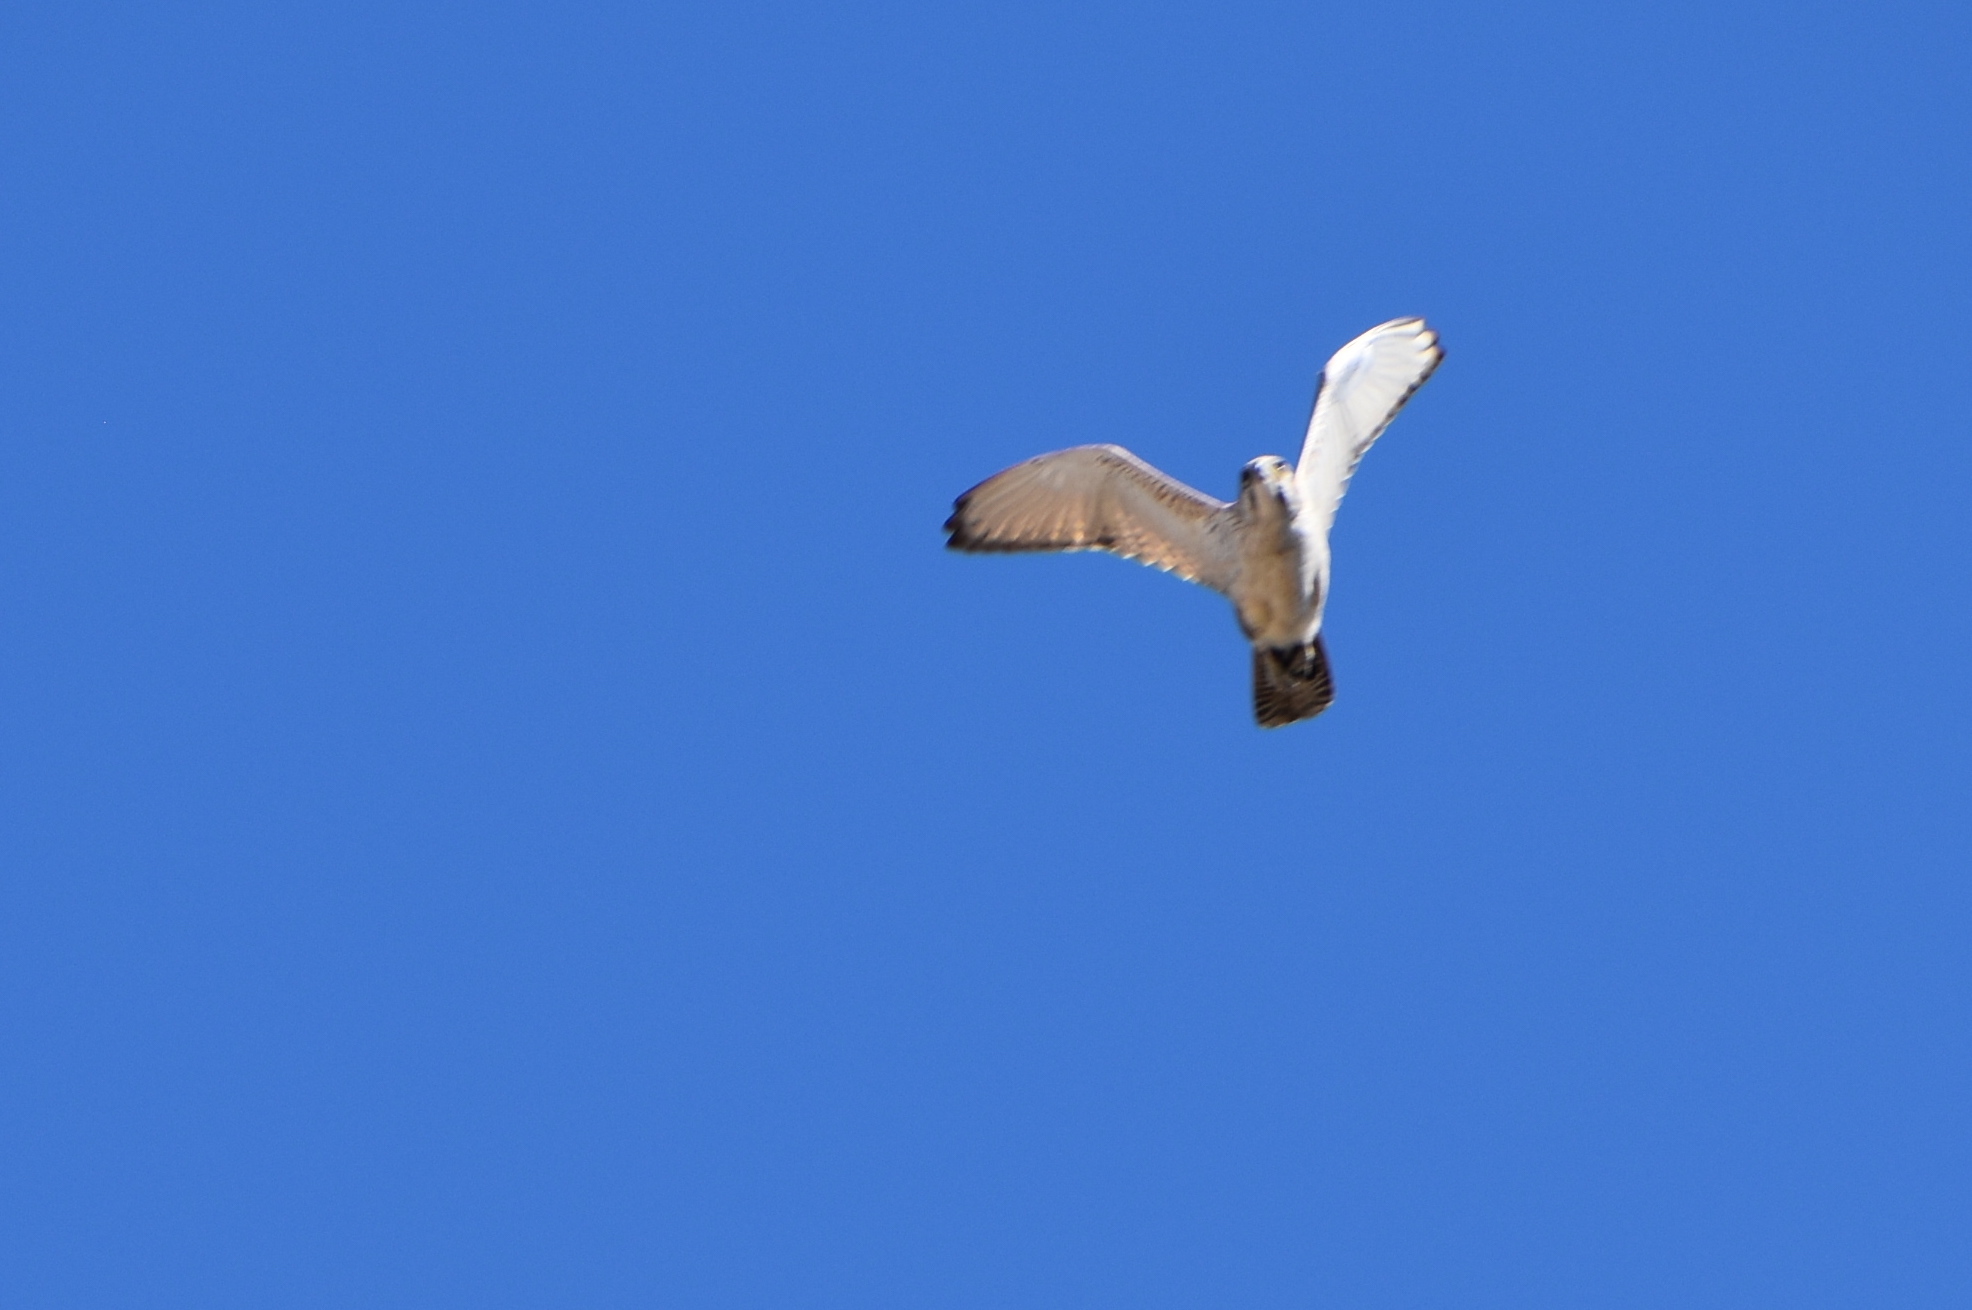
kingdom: Animalia
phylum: Chordata
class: Aves
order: Falconiformes
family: Falconidae
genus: Falco
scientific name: Falco berigora
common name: Brown falcon
